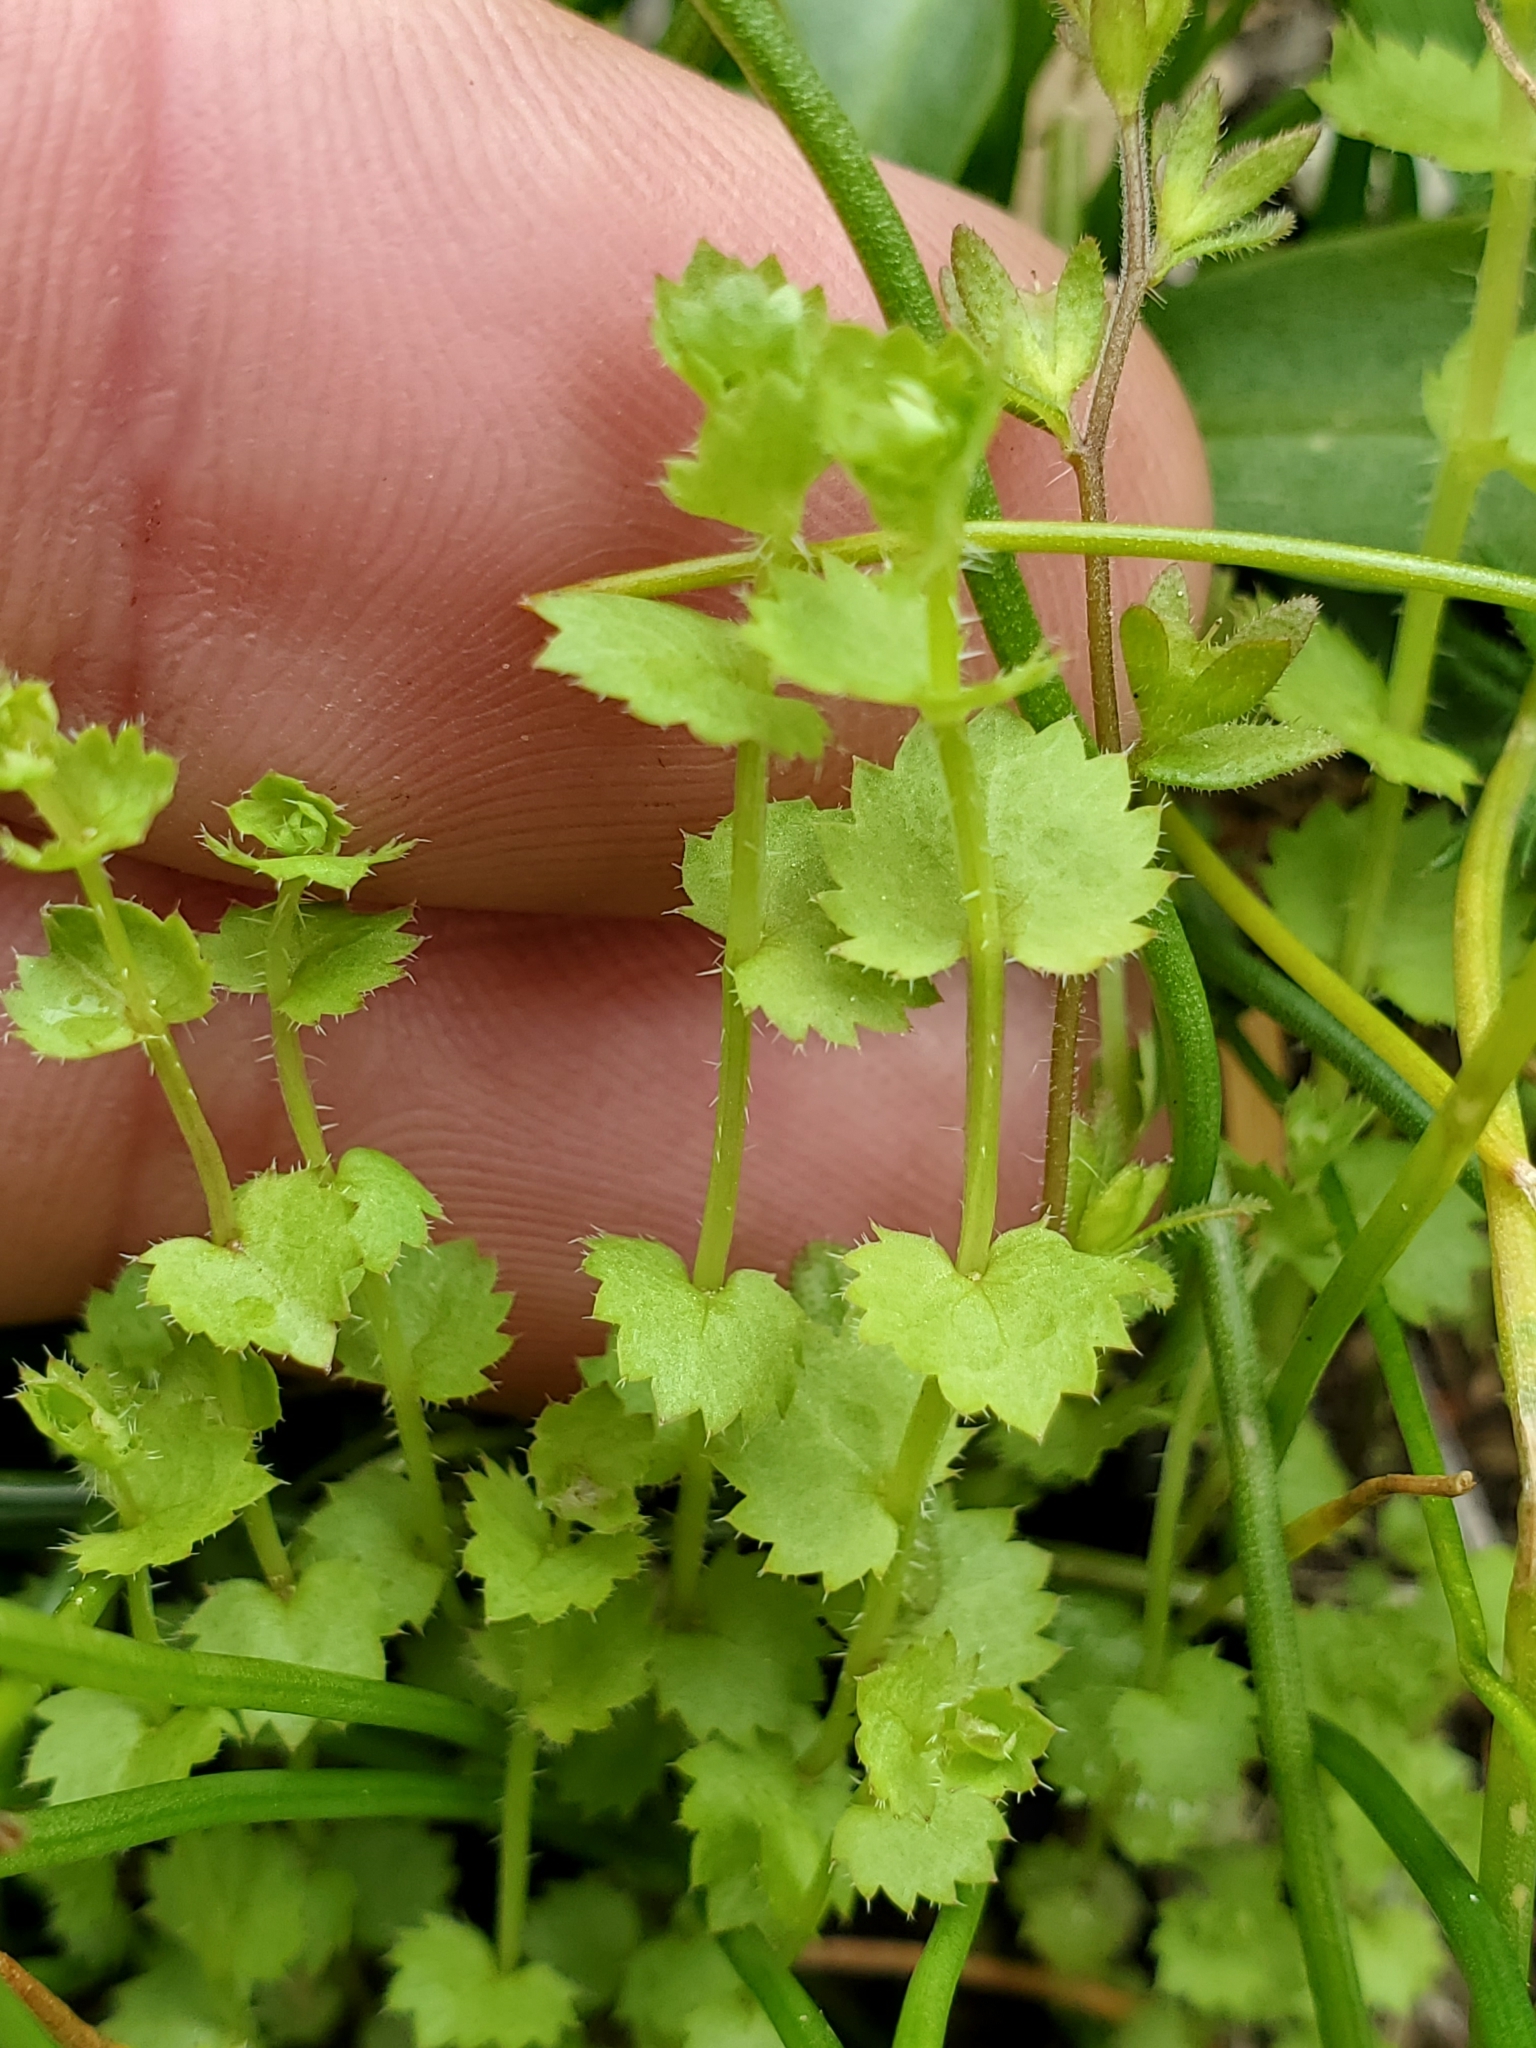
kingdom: Plantae
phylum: Tracheophyta
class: Magnoliopsida
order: Asterales
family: Campanulaceae
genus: Heterocodon
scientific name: Heterocodon rariflorum
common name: Rareflower heterocodon
